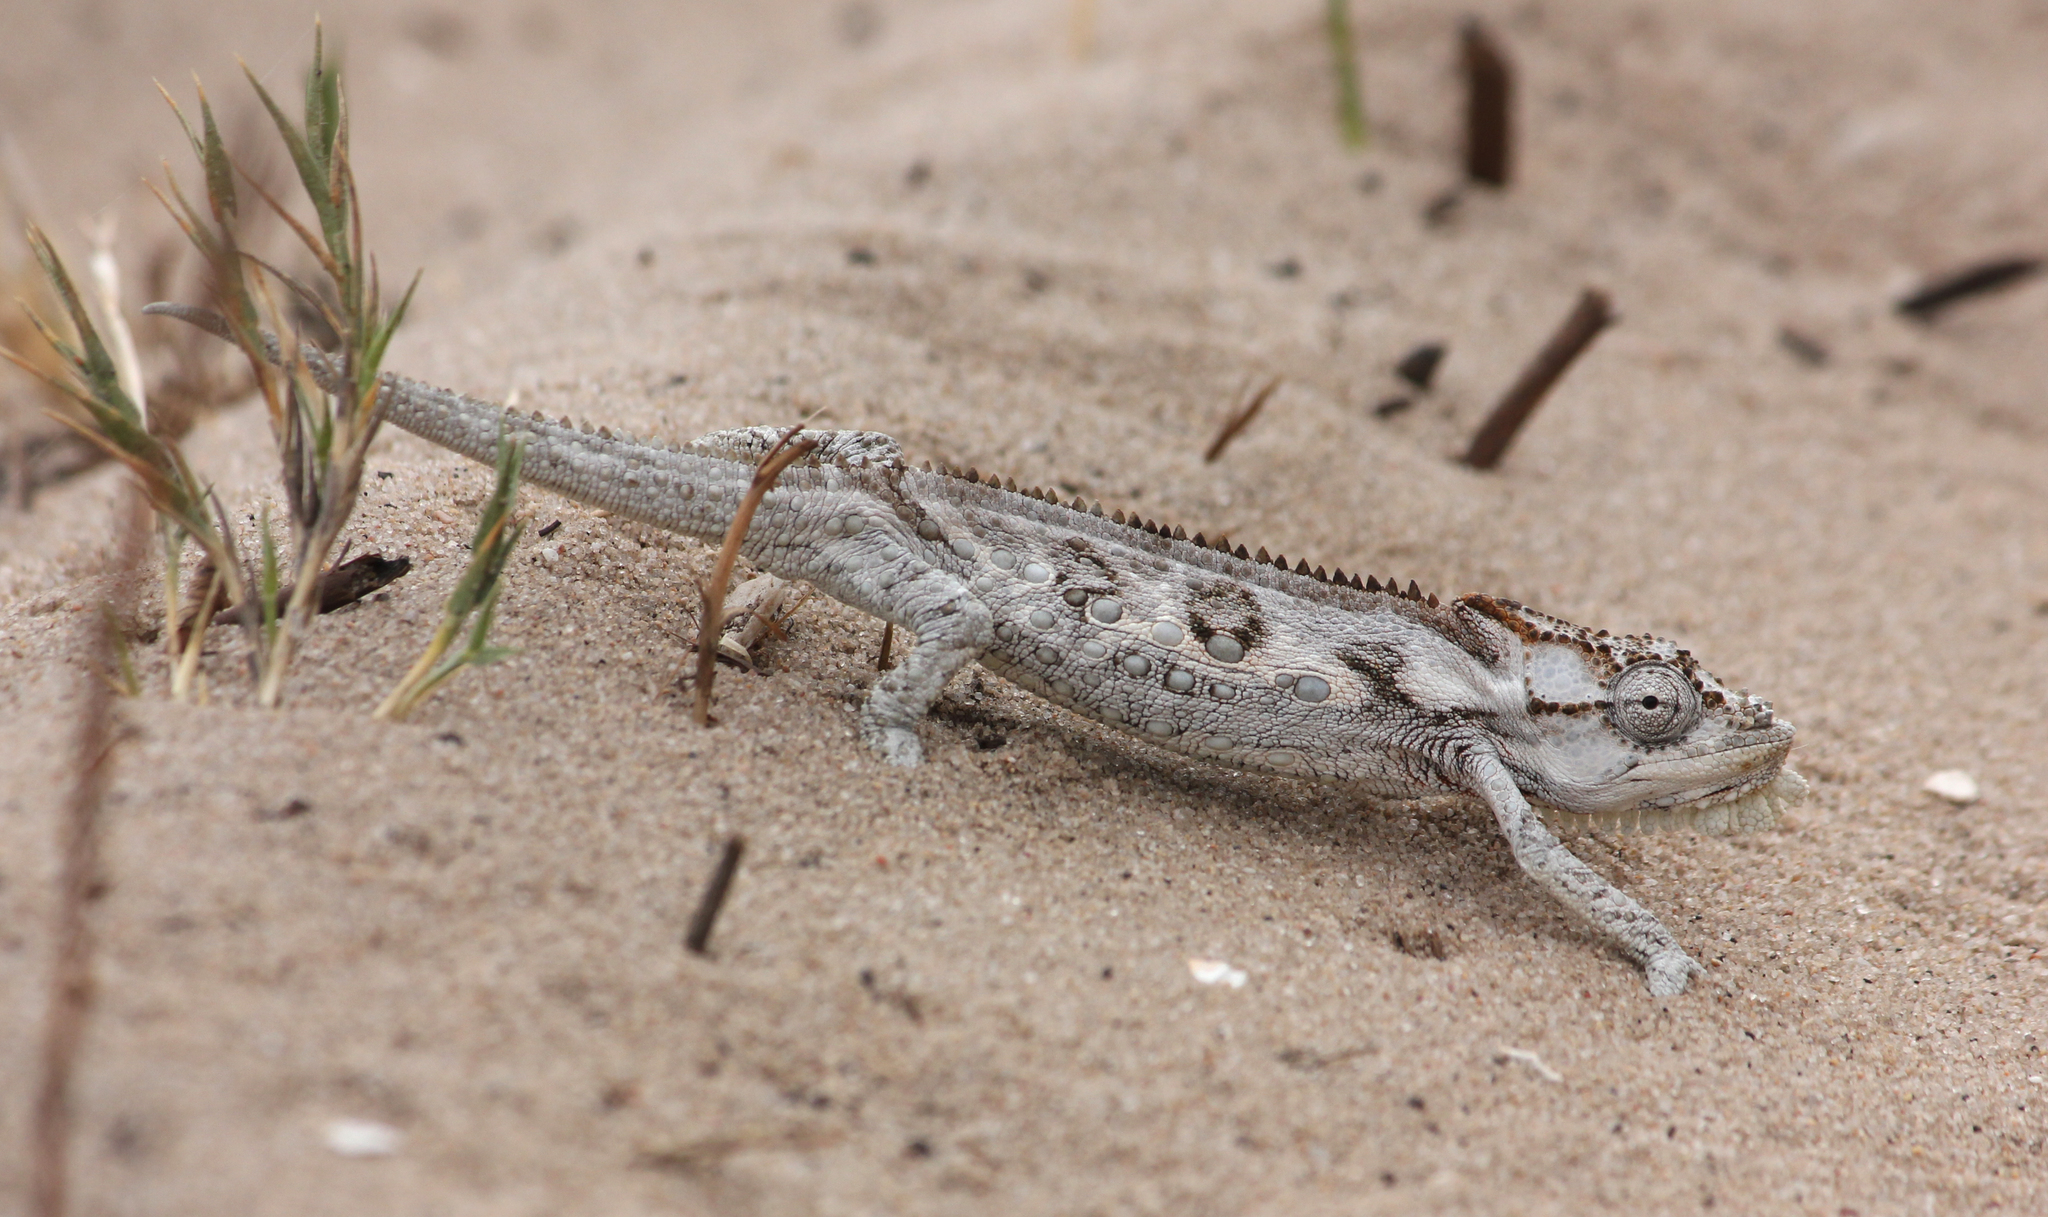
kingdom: Animalia
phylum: Chordata
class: Squamata
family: Chamaeleonidae
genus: Bradypodion
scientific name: Bradypodion occidentale
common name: Western dwarf chameleon
